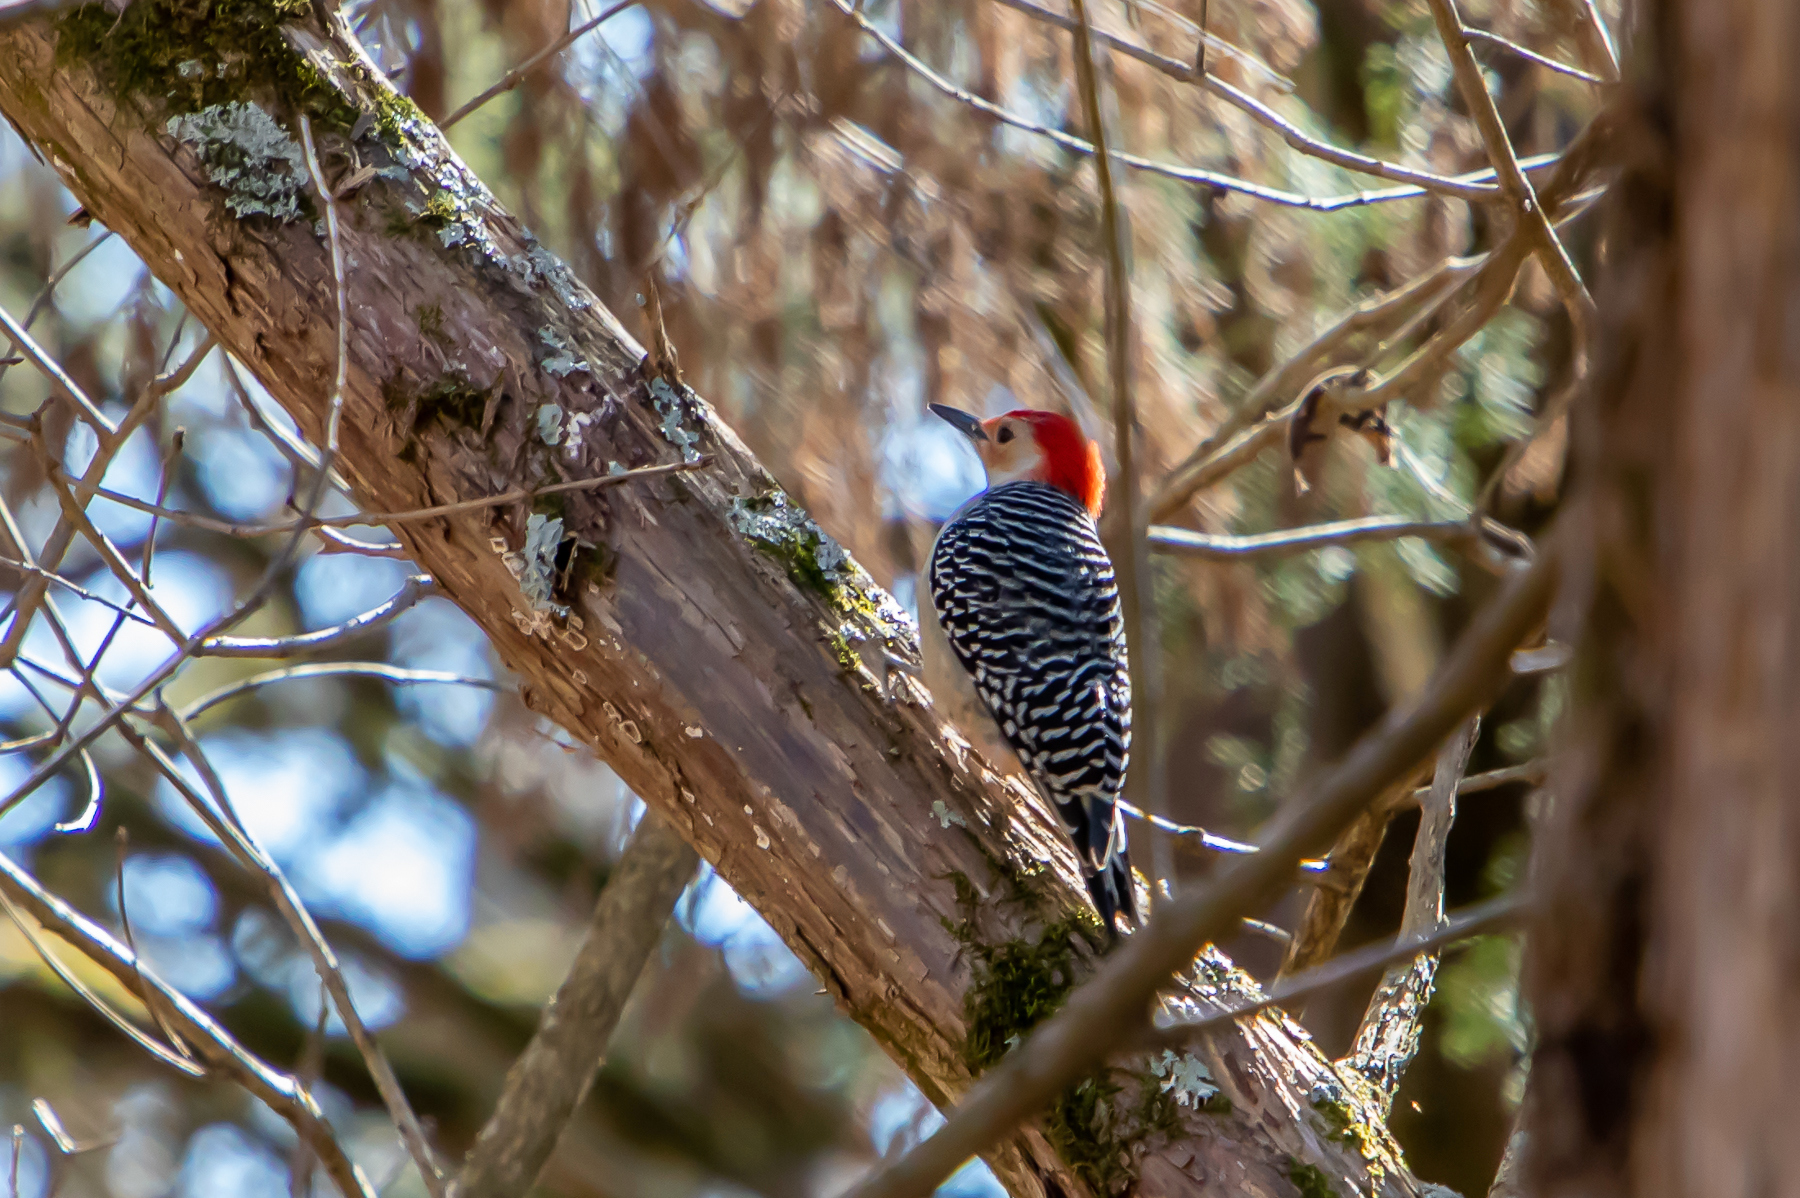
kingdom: Animalia
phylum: Chordata
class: Aves
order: Piciformes
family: Picidae
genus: Melanerpes
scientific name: Melanerpes carolinus
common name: Red-bellied woodpecker
